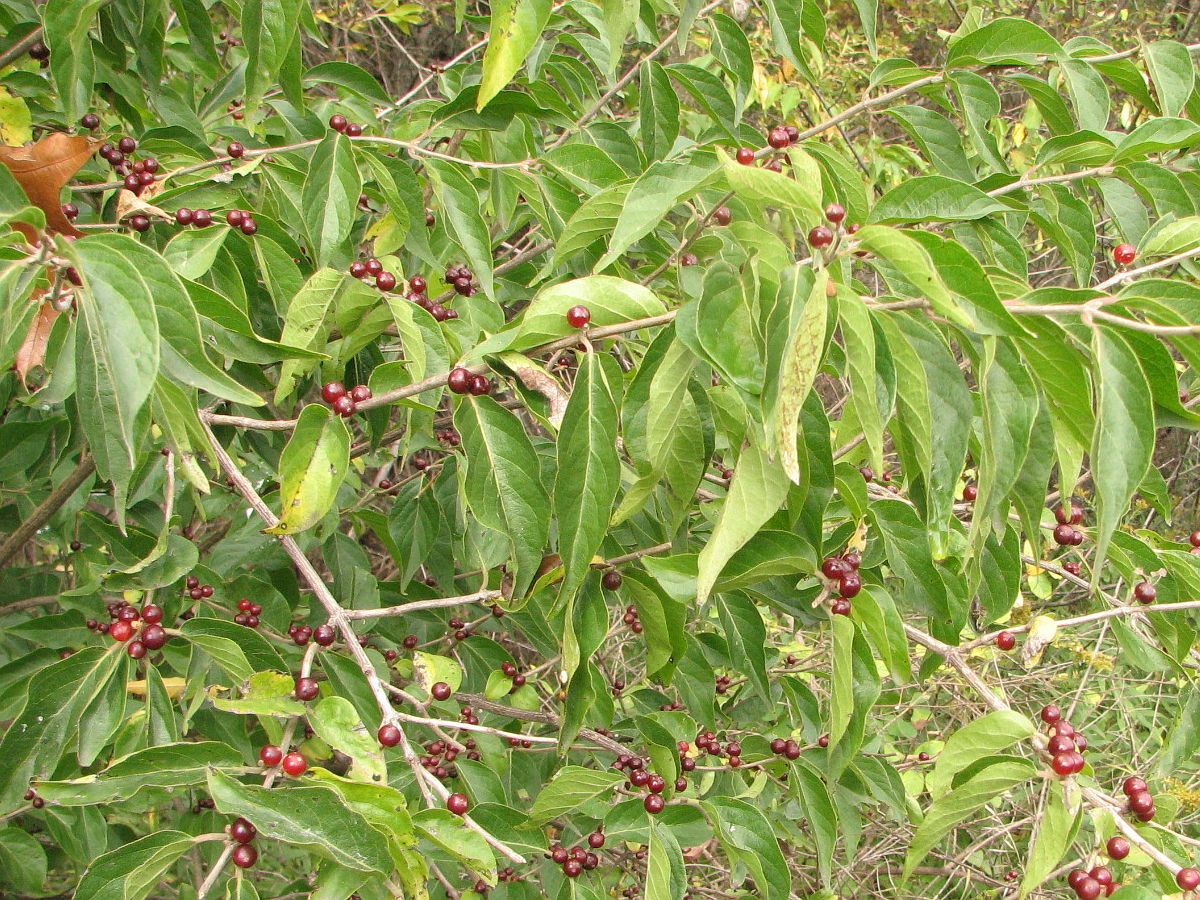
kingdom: Plantae
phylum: Tracheophyta
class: Magnoliopsida
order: Dipsacales
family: Caprifoliaceae
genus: Lonicera
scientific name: Lonicera maackii
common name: Amur honeysuckle
